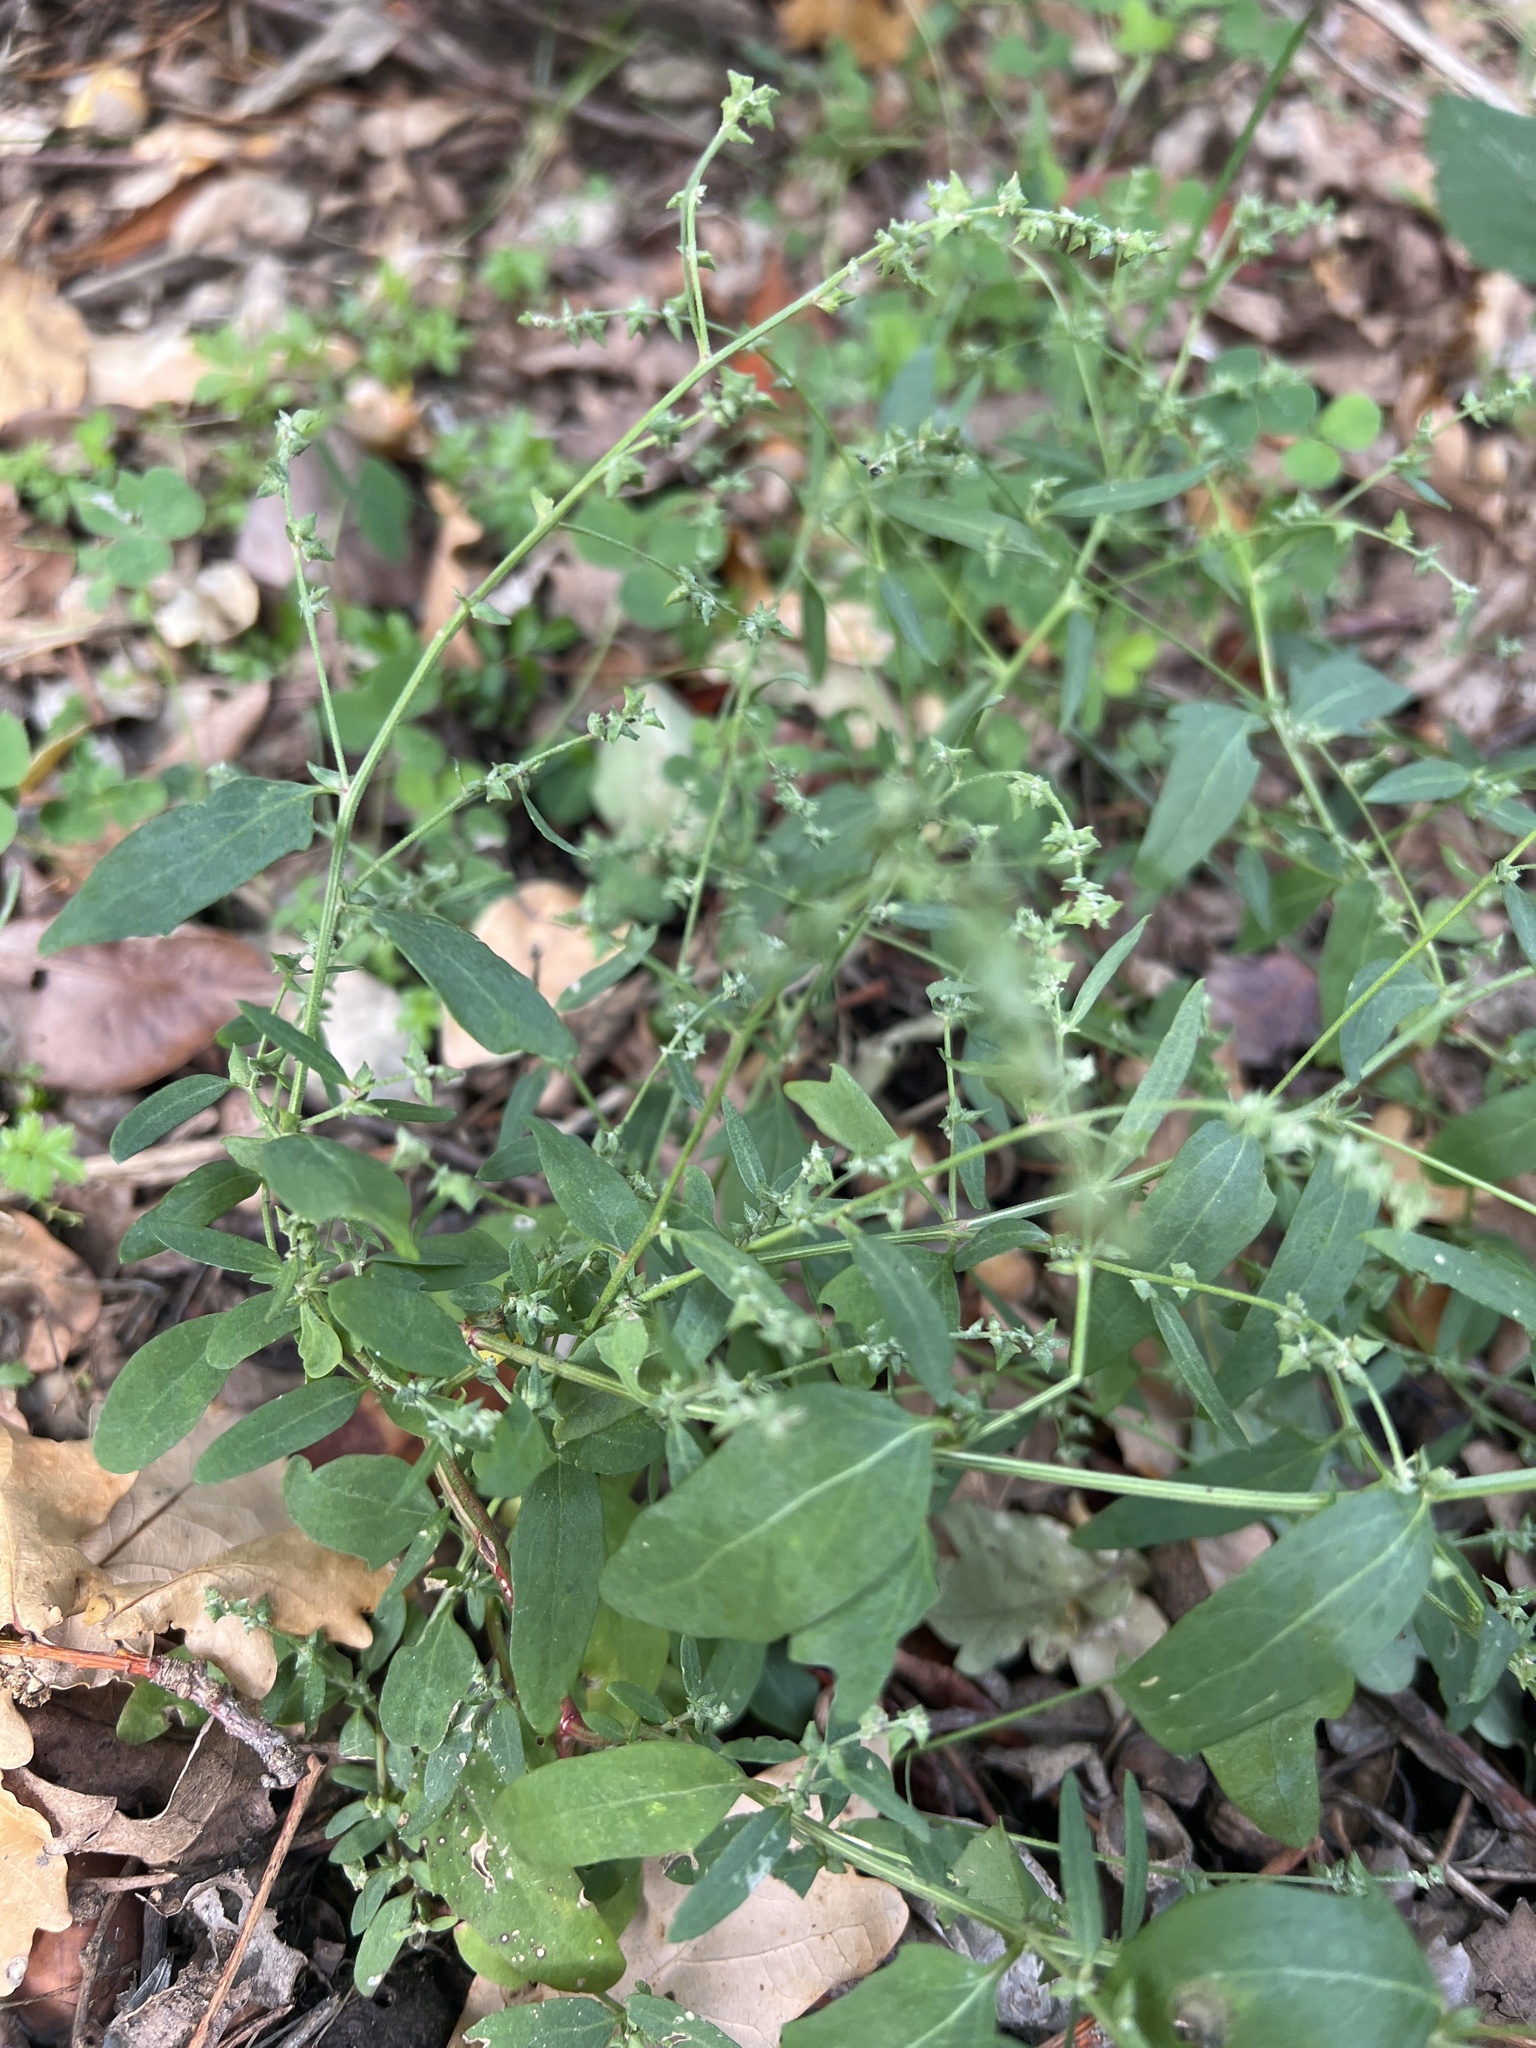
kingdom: Plantae
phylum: Tracheophyta
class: Magnoliopsida
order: Caryophyllales
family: Amaranthaceae
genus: Atriplex
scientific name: Atriplex patula
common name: Common orache
